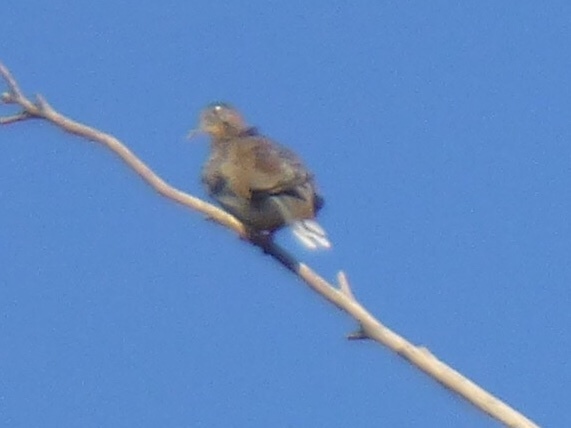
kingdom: Animalia
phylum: Chordata
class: Aves
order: Columbiformes
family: Columbidae
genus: Zenaida
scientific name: Zenaida asiatica
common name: White-winged dove
